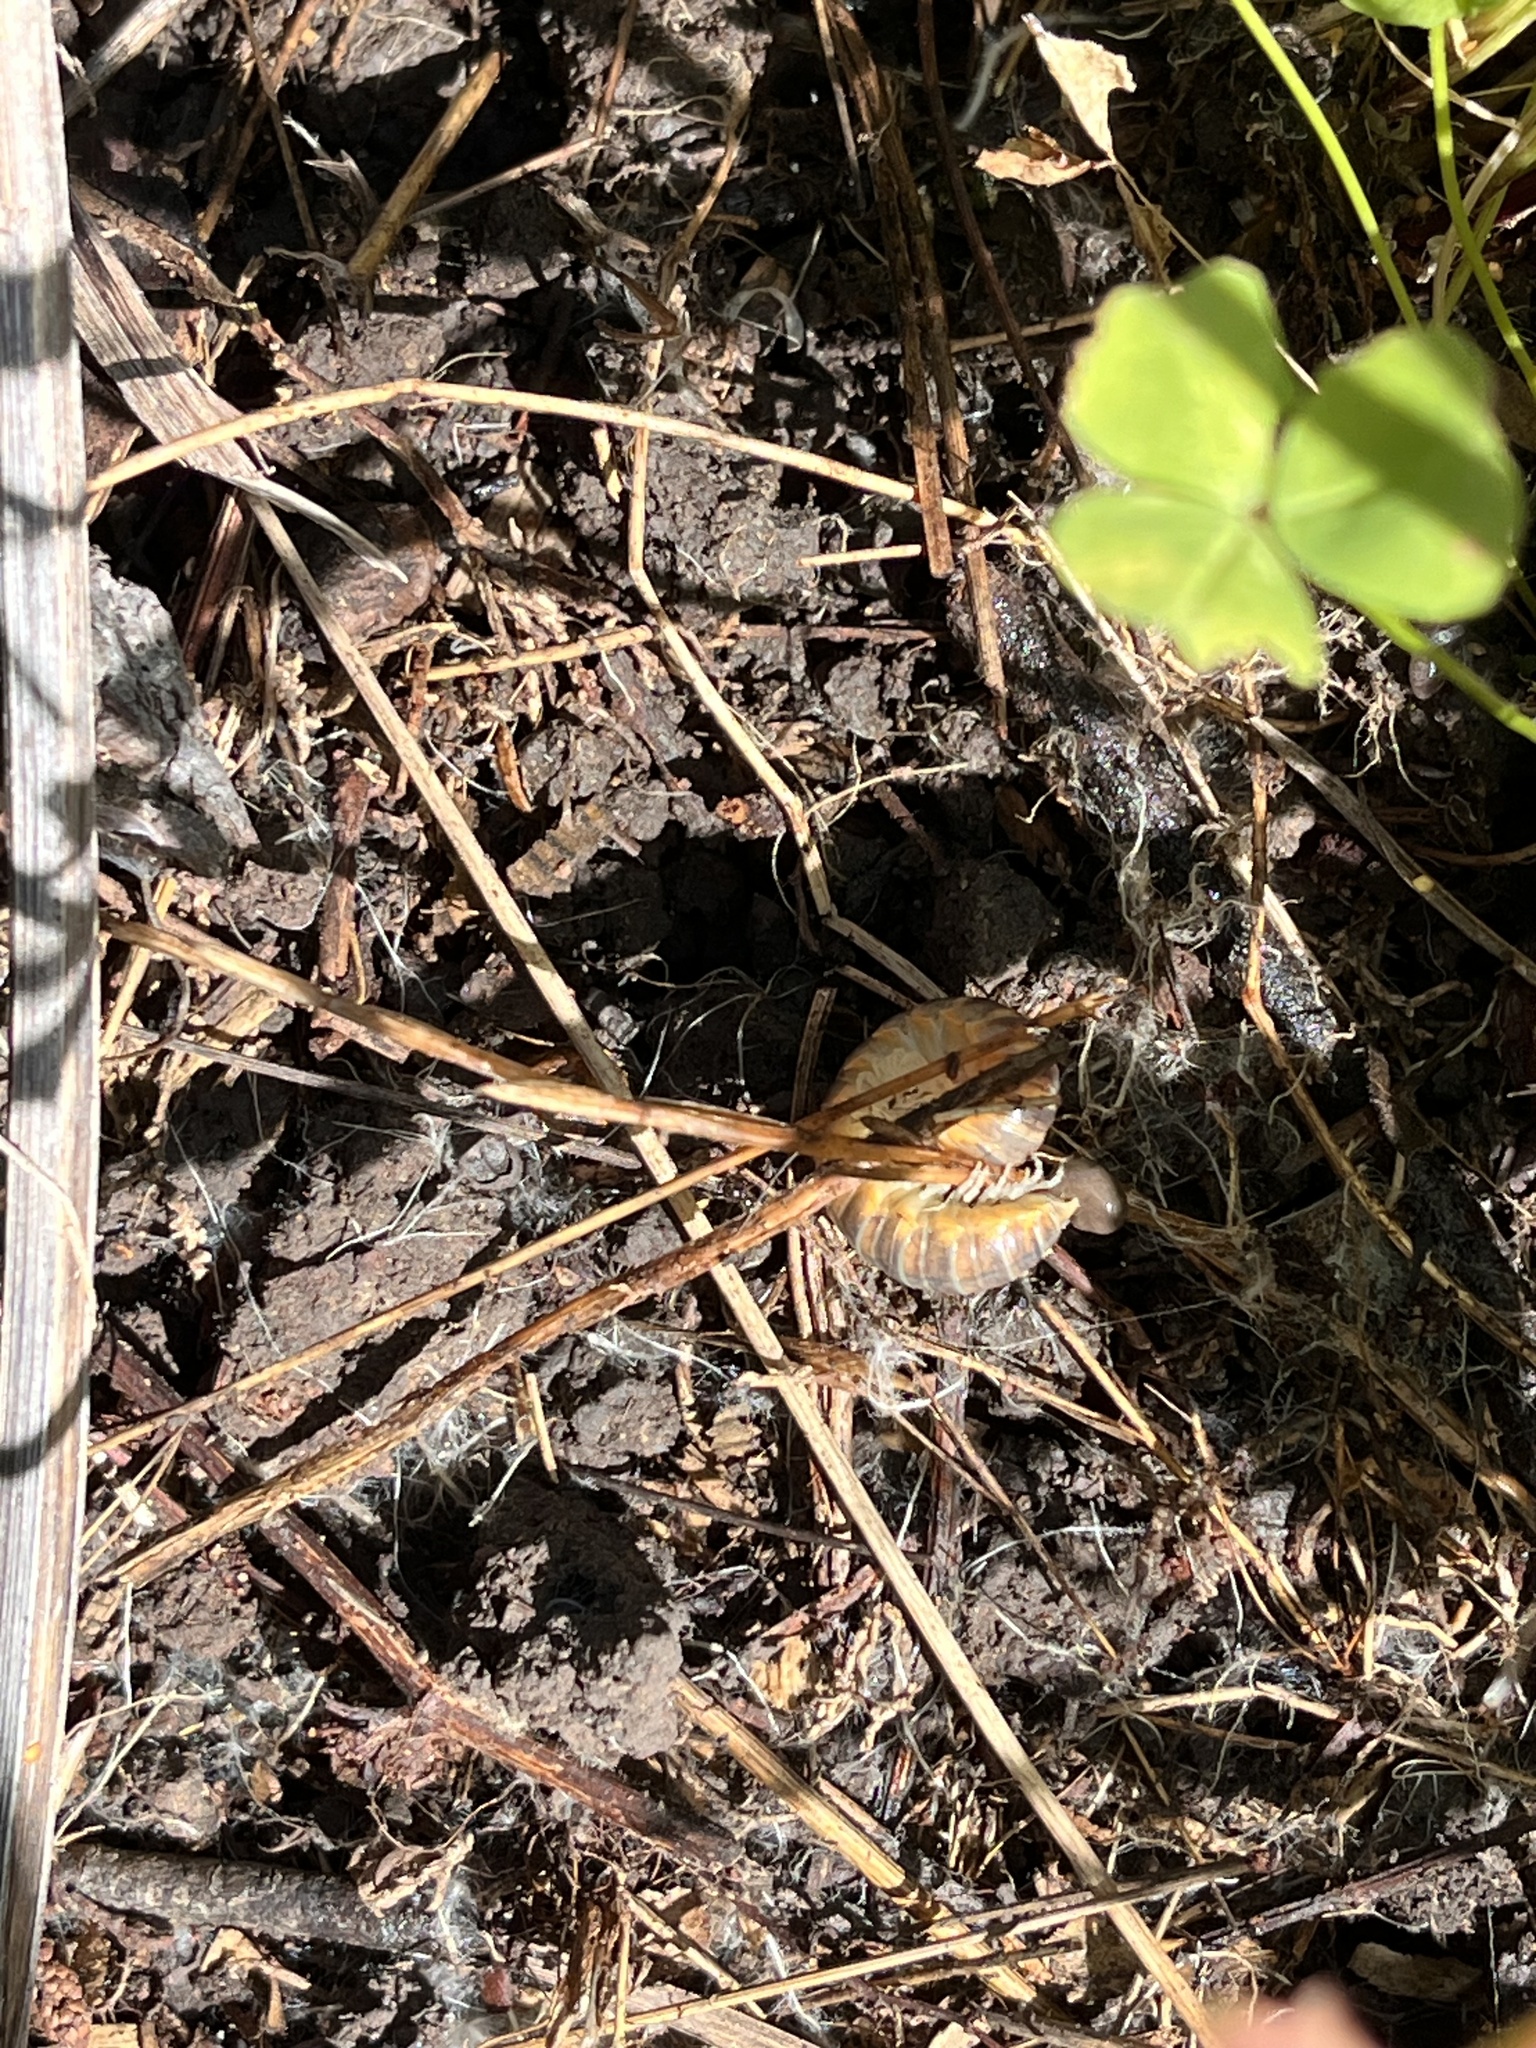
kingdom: Animalia
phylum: Arthropoda
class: Diplopoda
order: Polydesmida
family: Xystodesmidae
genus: Xystocheir
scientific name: Xystocheir dissecta
